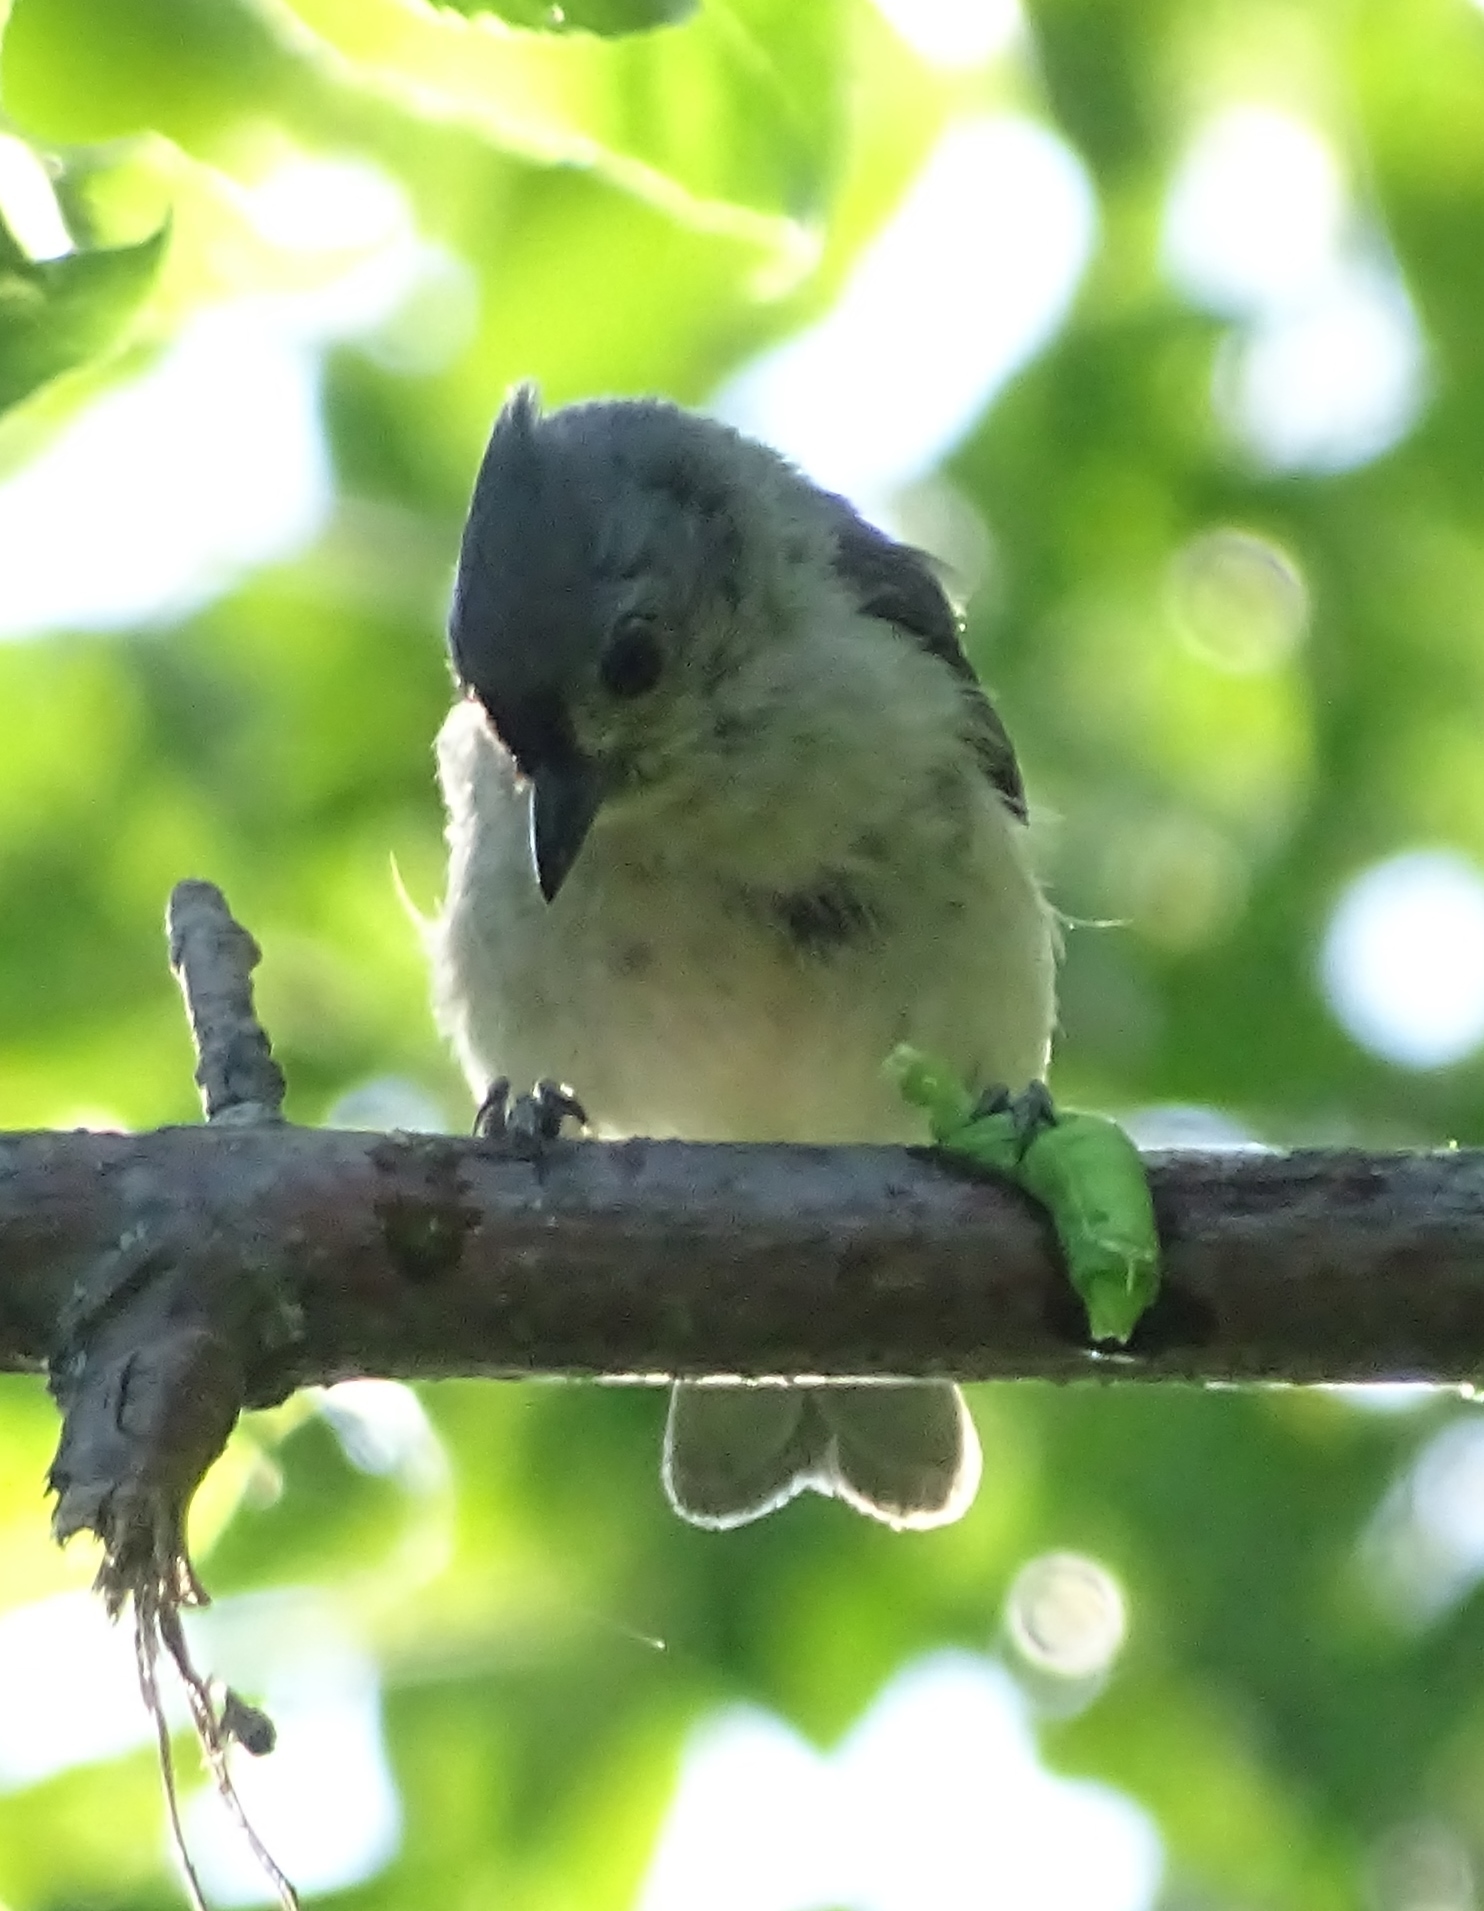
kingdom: Animalia
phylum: Chordata
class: Aves
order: Passeriformes
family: Paridae
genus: Baeolophus
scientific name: Baeolophus bicolor
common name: Tufted titmouse
